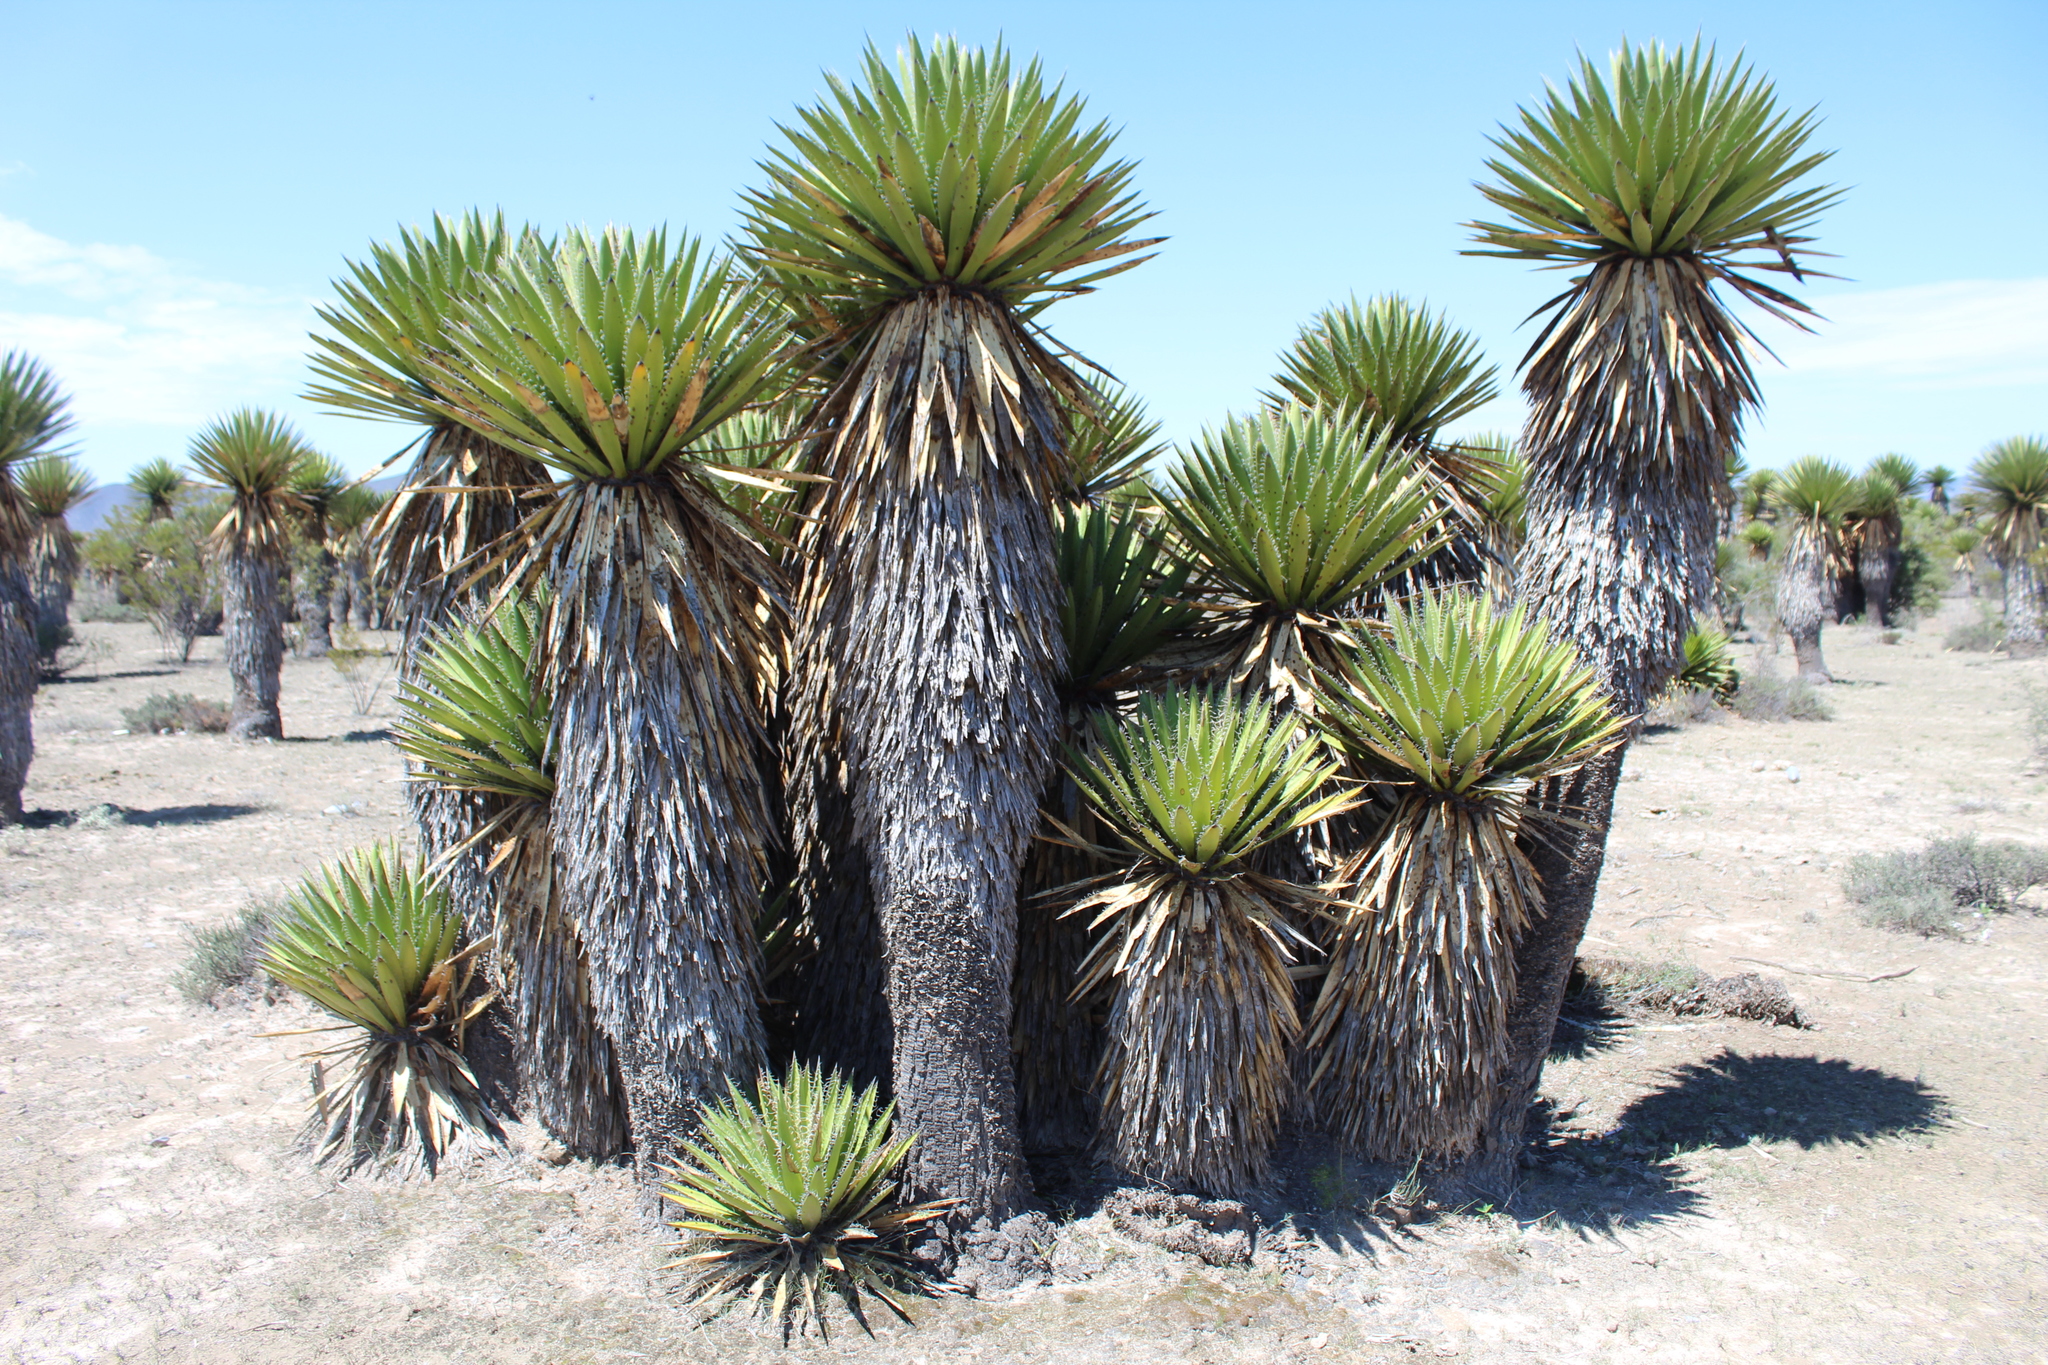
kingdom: Plantae
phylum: Tracheophyta
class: Liliopsida
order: Asparagales
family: Asparagaceae
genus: Yucca
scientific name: Yucca carnerosana
